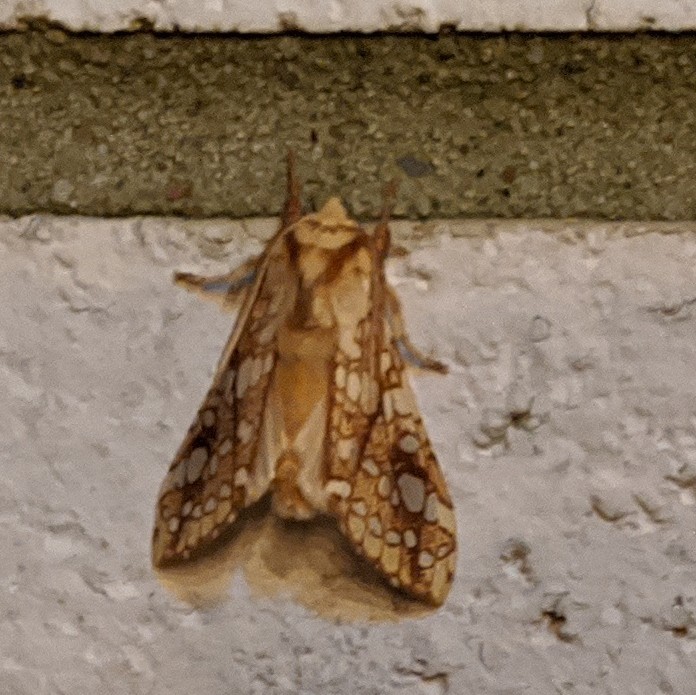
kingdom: Animalia
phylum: Arthropoda
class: Insecta
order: Lepidoptera
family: Erebidae
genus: Lophocampa
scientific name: Lophocampa caryae
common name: Hickory tussock moth
